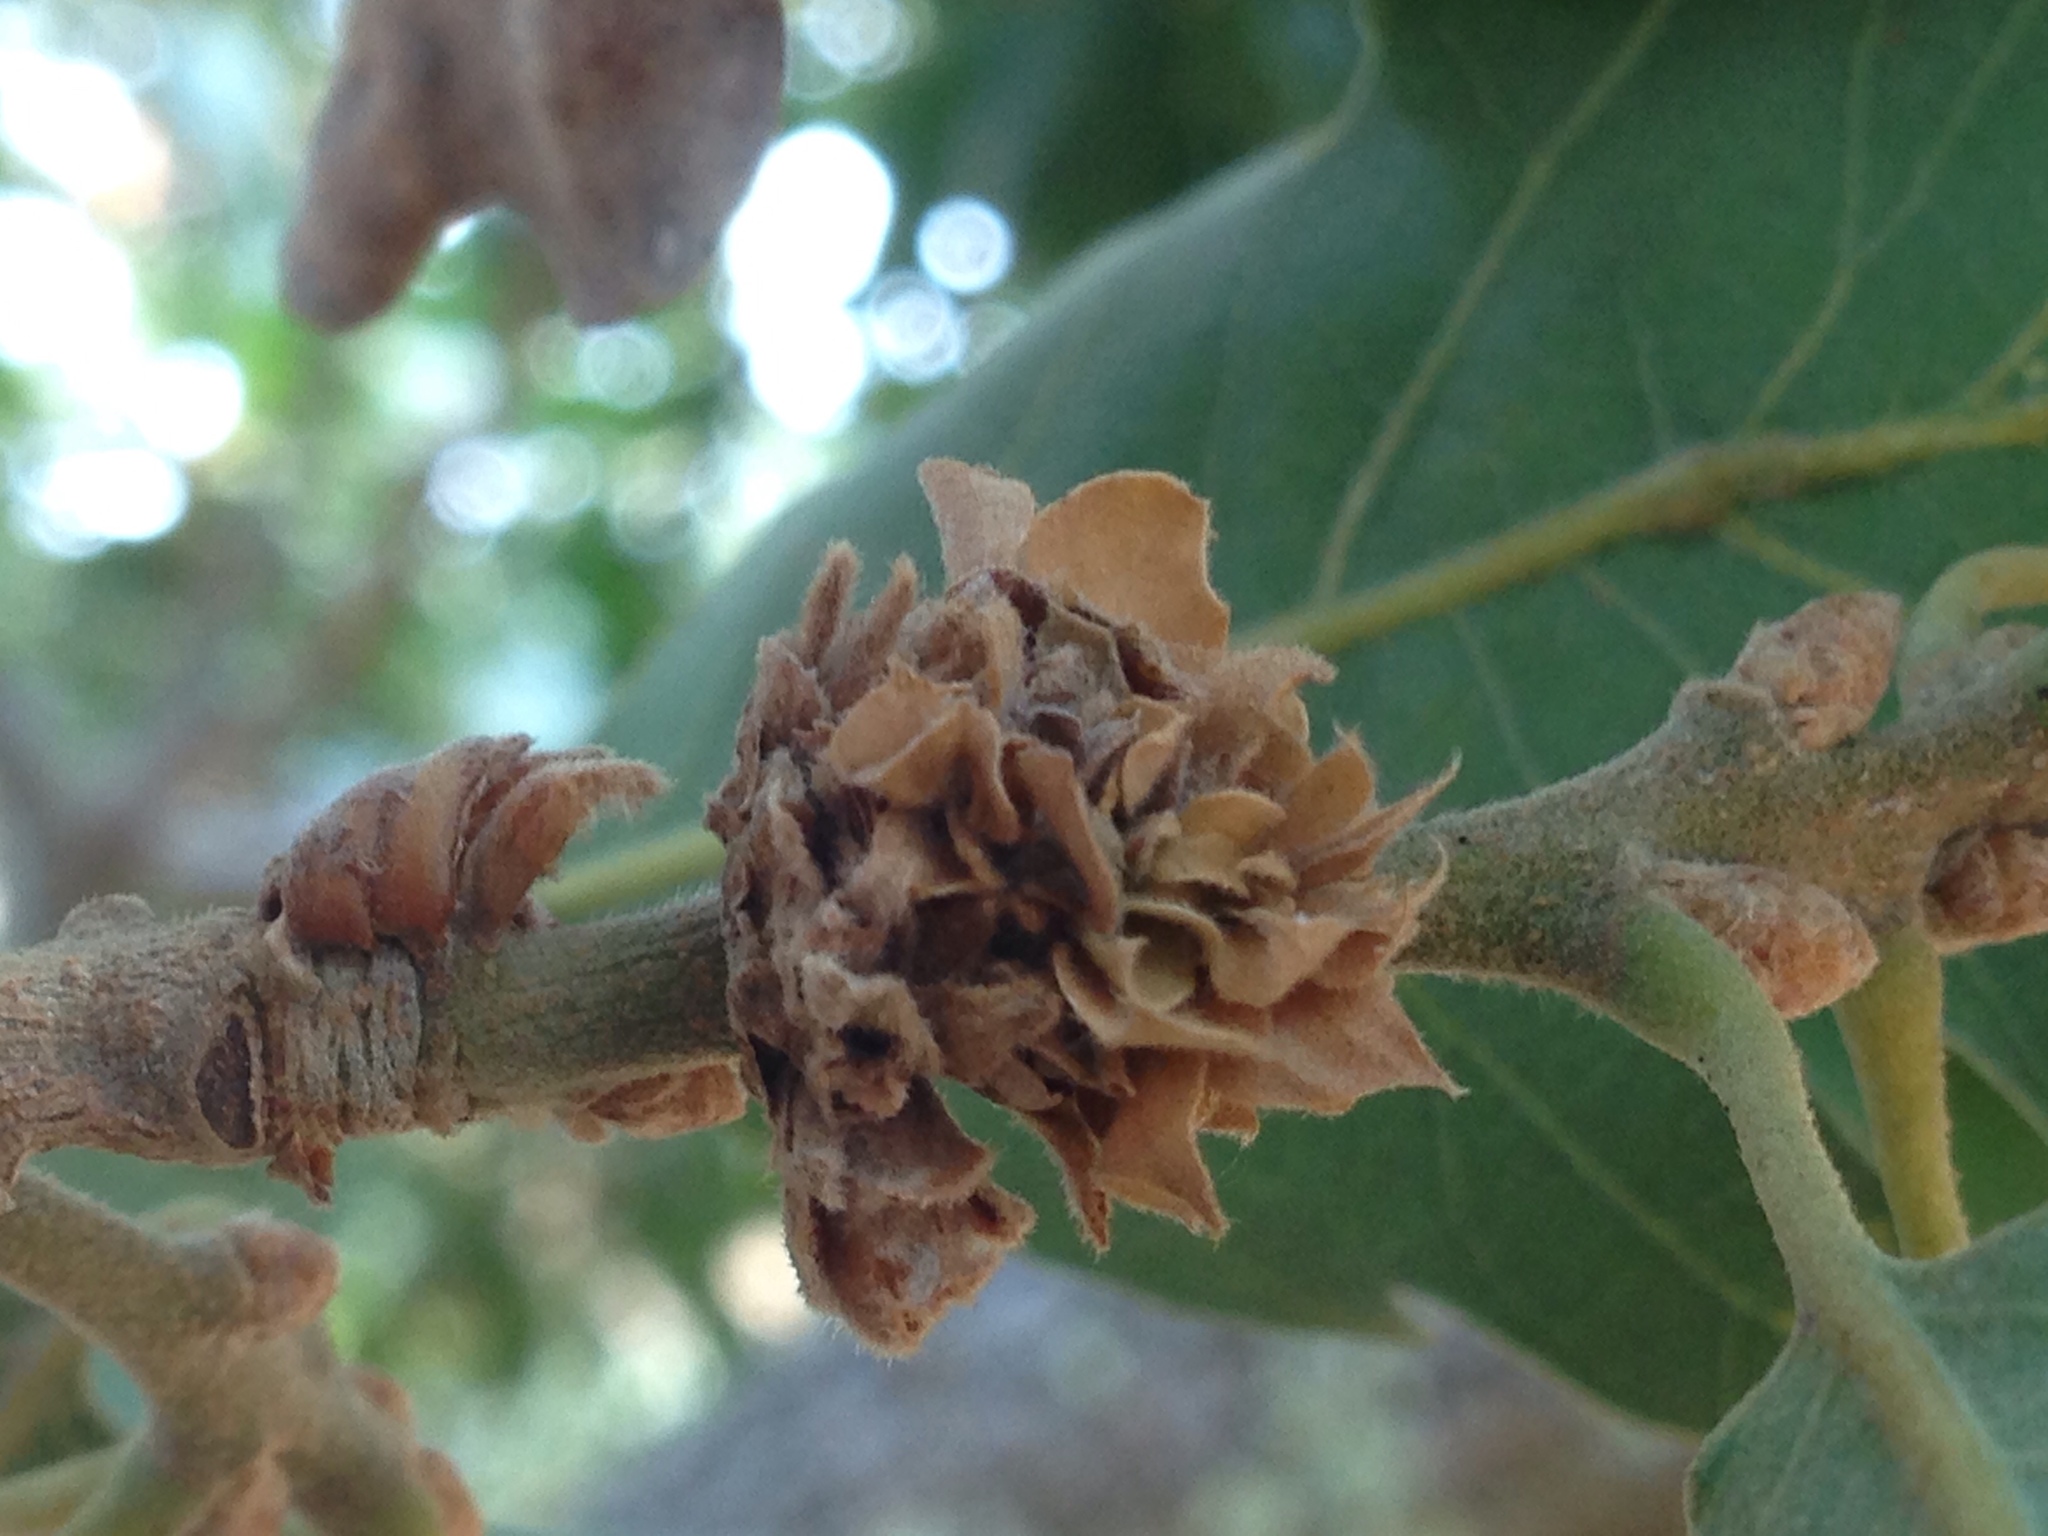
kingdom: Animalia
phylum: Arthropoda
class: Insecta
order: Hymenoptera
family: Cynipidae
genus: Andricus
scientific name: Andricus
